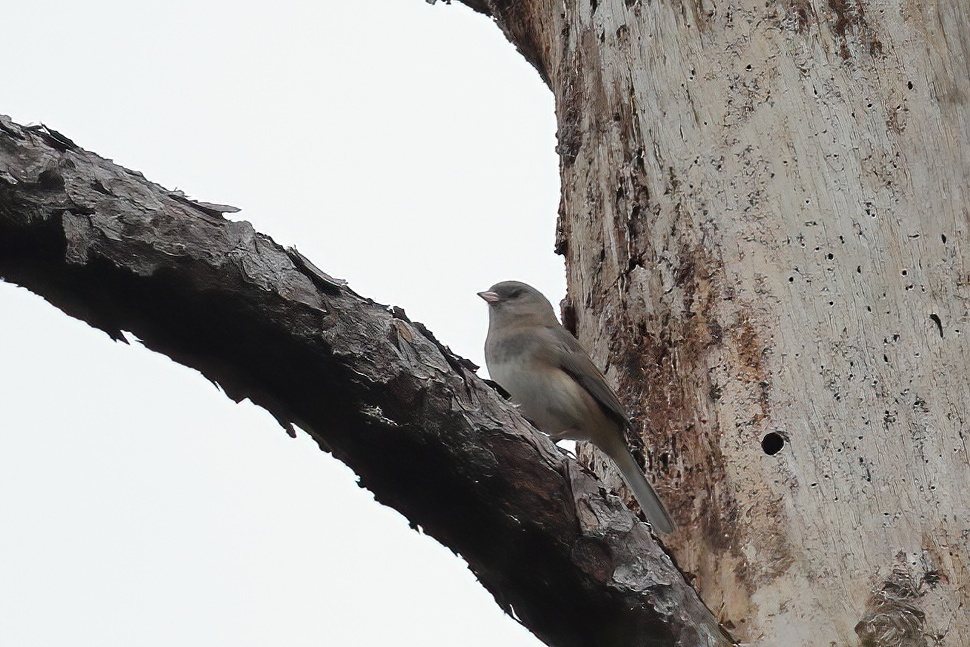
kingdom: Animalia
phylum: Chordata
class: Aves
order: Passeriformes
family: Passerellidae
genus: Junco
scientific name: Junco hyemalis
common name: Dark-eyed junco
